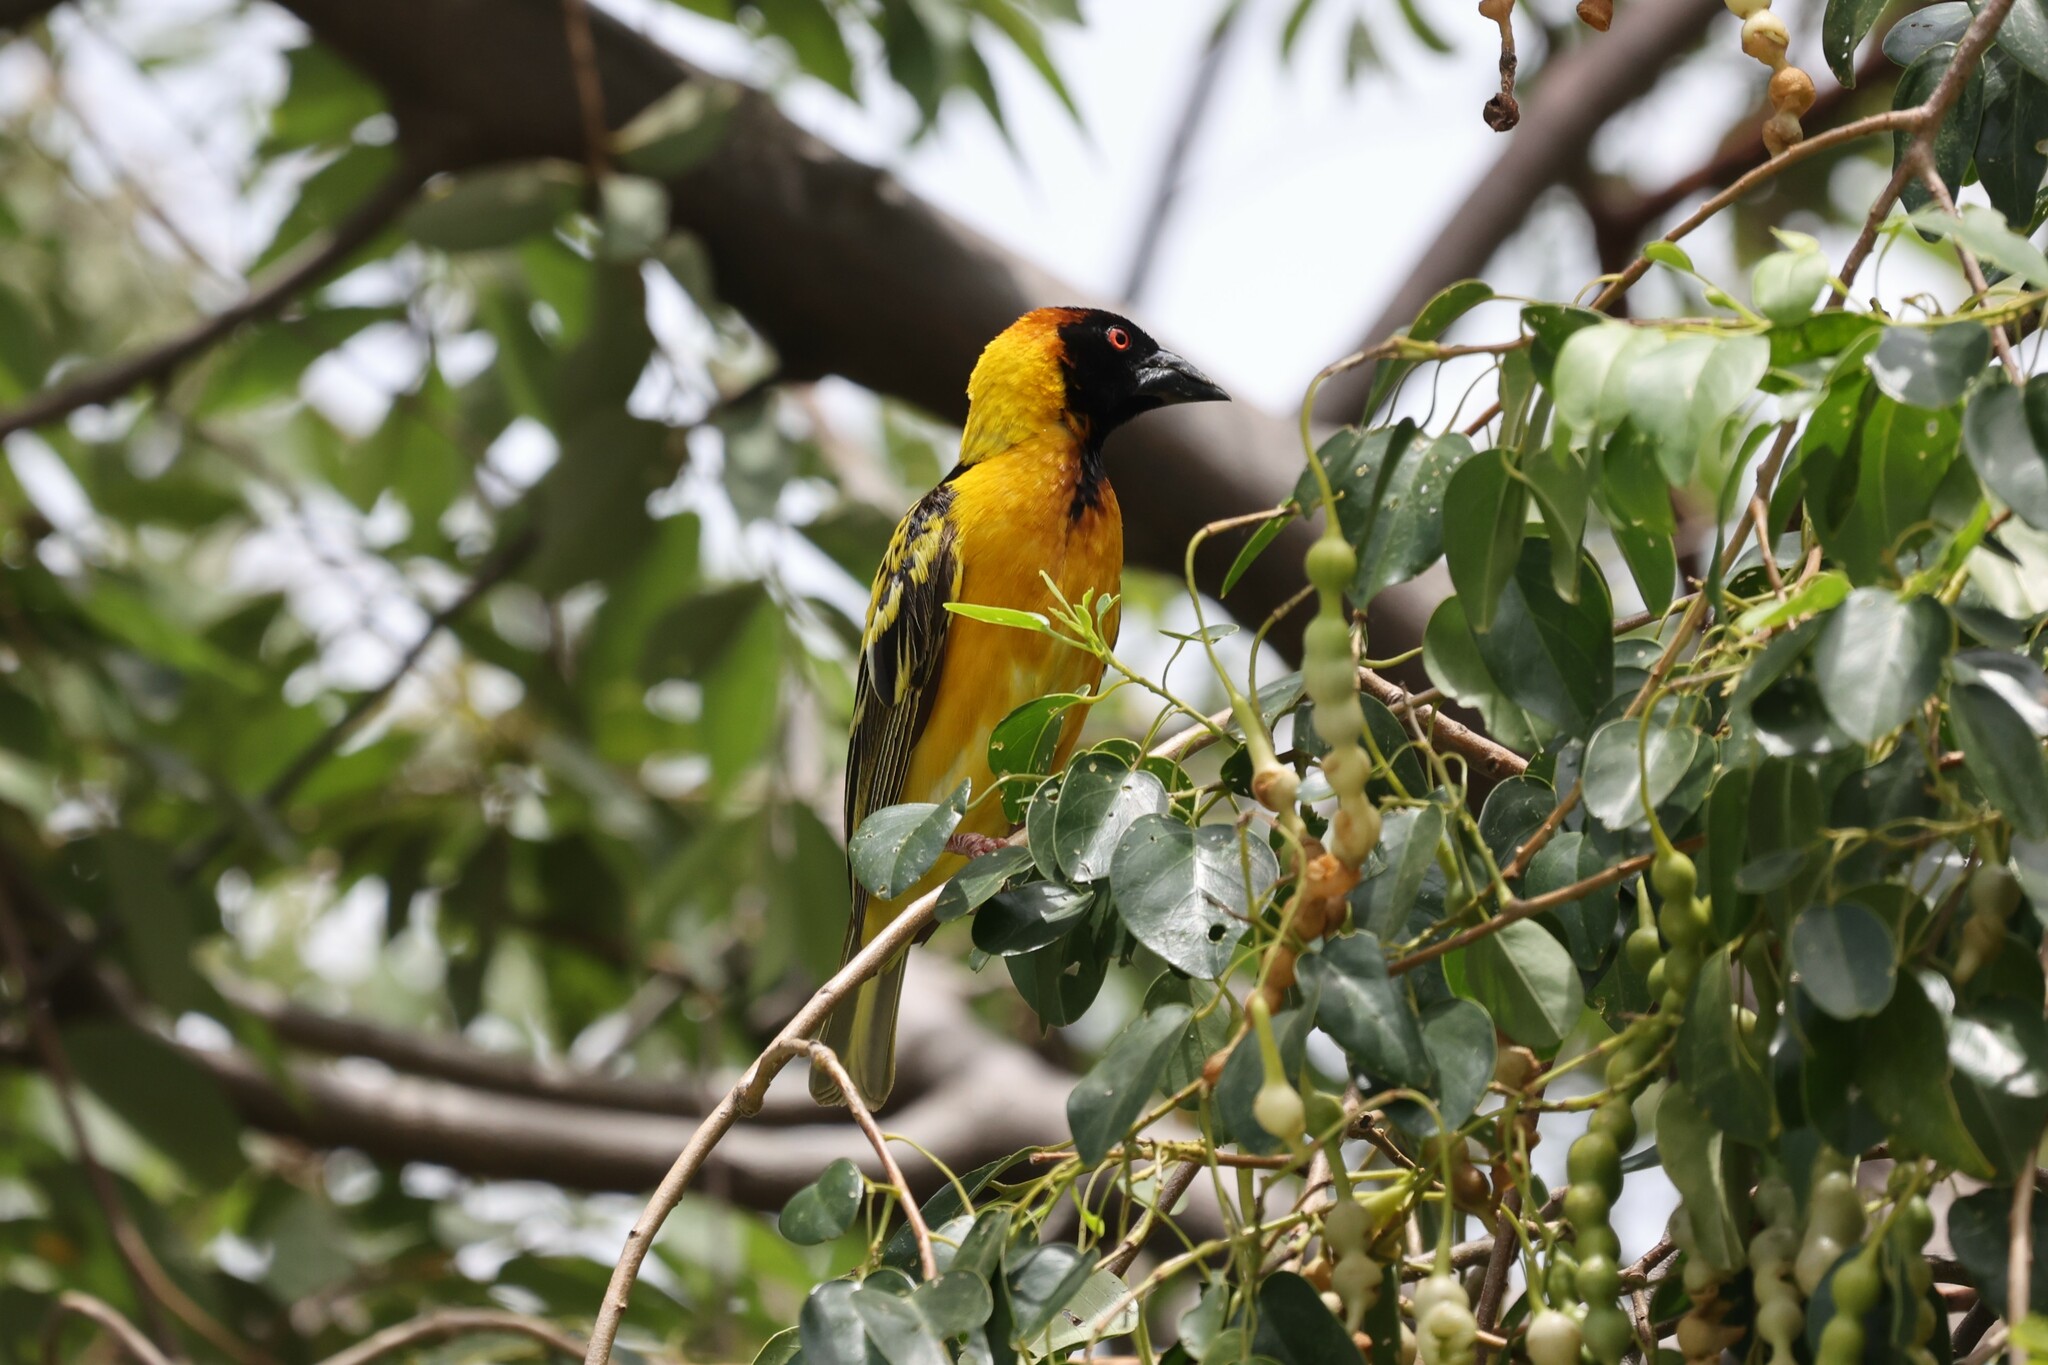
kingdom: Animalia
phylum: Chordata
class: Aves
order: Passeriformes
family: Ploceidae
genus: Ploceus
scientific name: Ploceus cucullatus
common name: Village weaver
